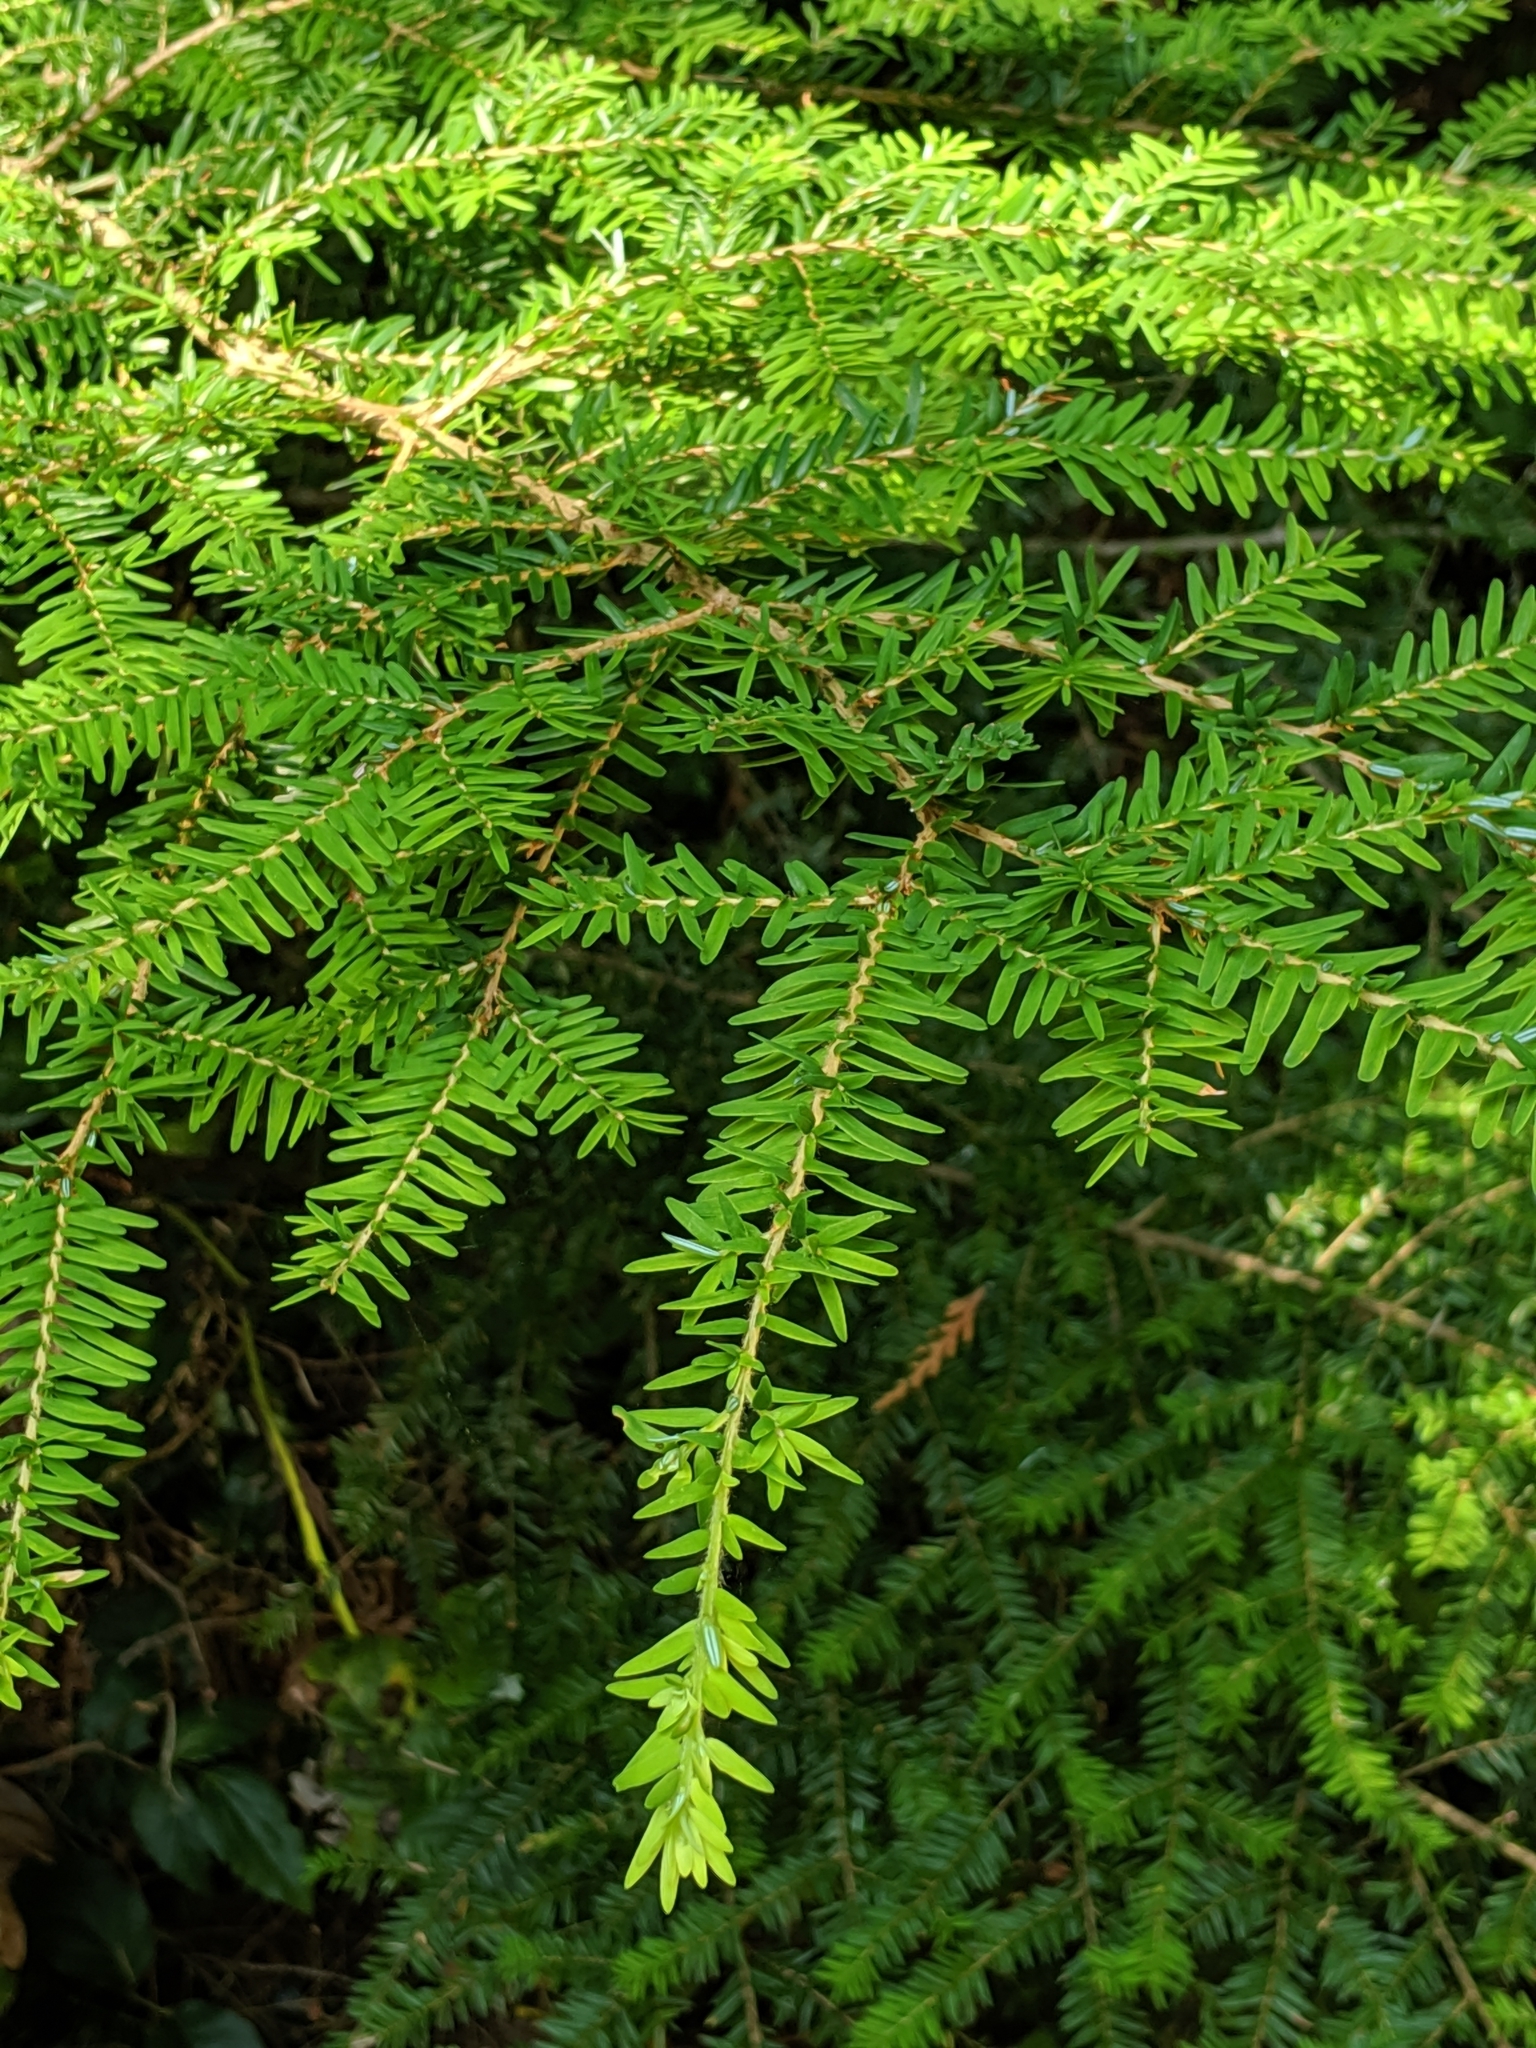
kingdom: Plantae
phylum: Tracheophyta
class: Pinopsida
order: Pinales
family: Pinaceae
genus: Tsuga
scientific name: Tsuga heterophylla
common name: Western hemlock
